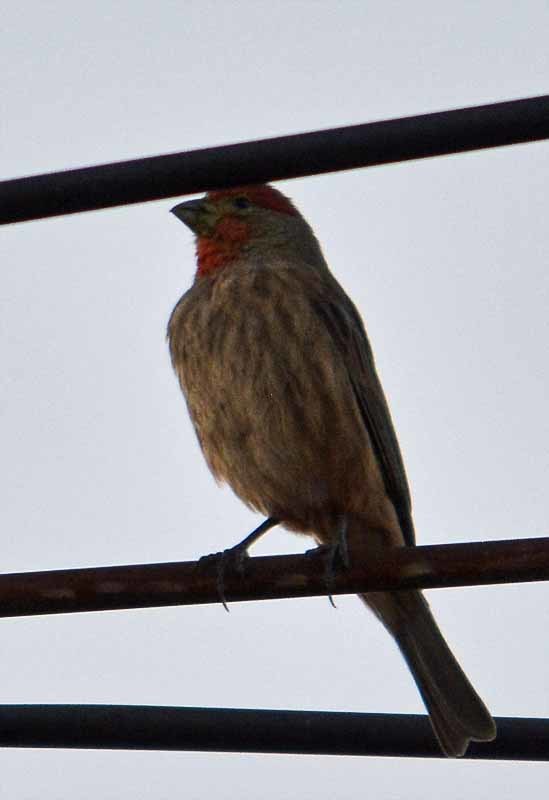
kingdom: Animalia
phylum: Chordata
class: Aves
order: Passeriformes
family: Fringillidae
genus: Haemorhous
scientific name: Haemorhous mexicanus
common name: House finch
